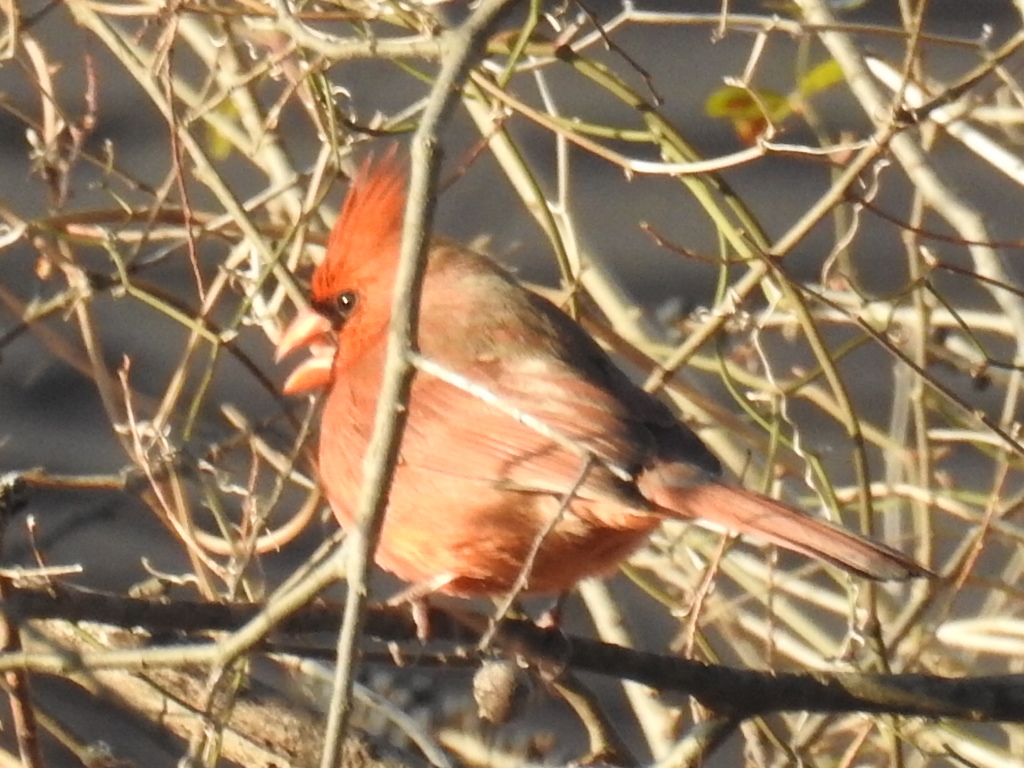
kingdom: Animalia
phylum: Chordata
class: Aves
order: Passeriformes
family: Cardinalidae
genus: Cardinalis
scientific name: Cardinalis cardinalis
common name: Northern cardinal
